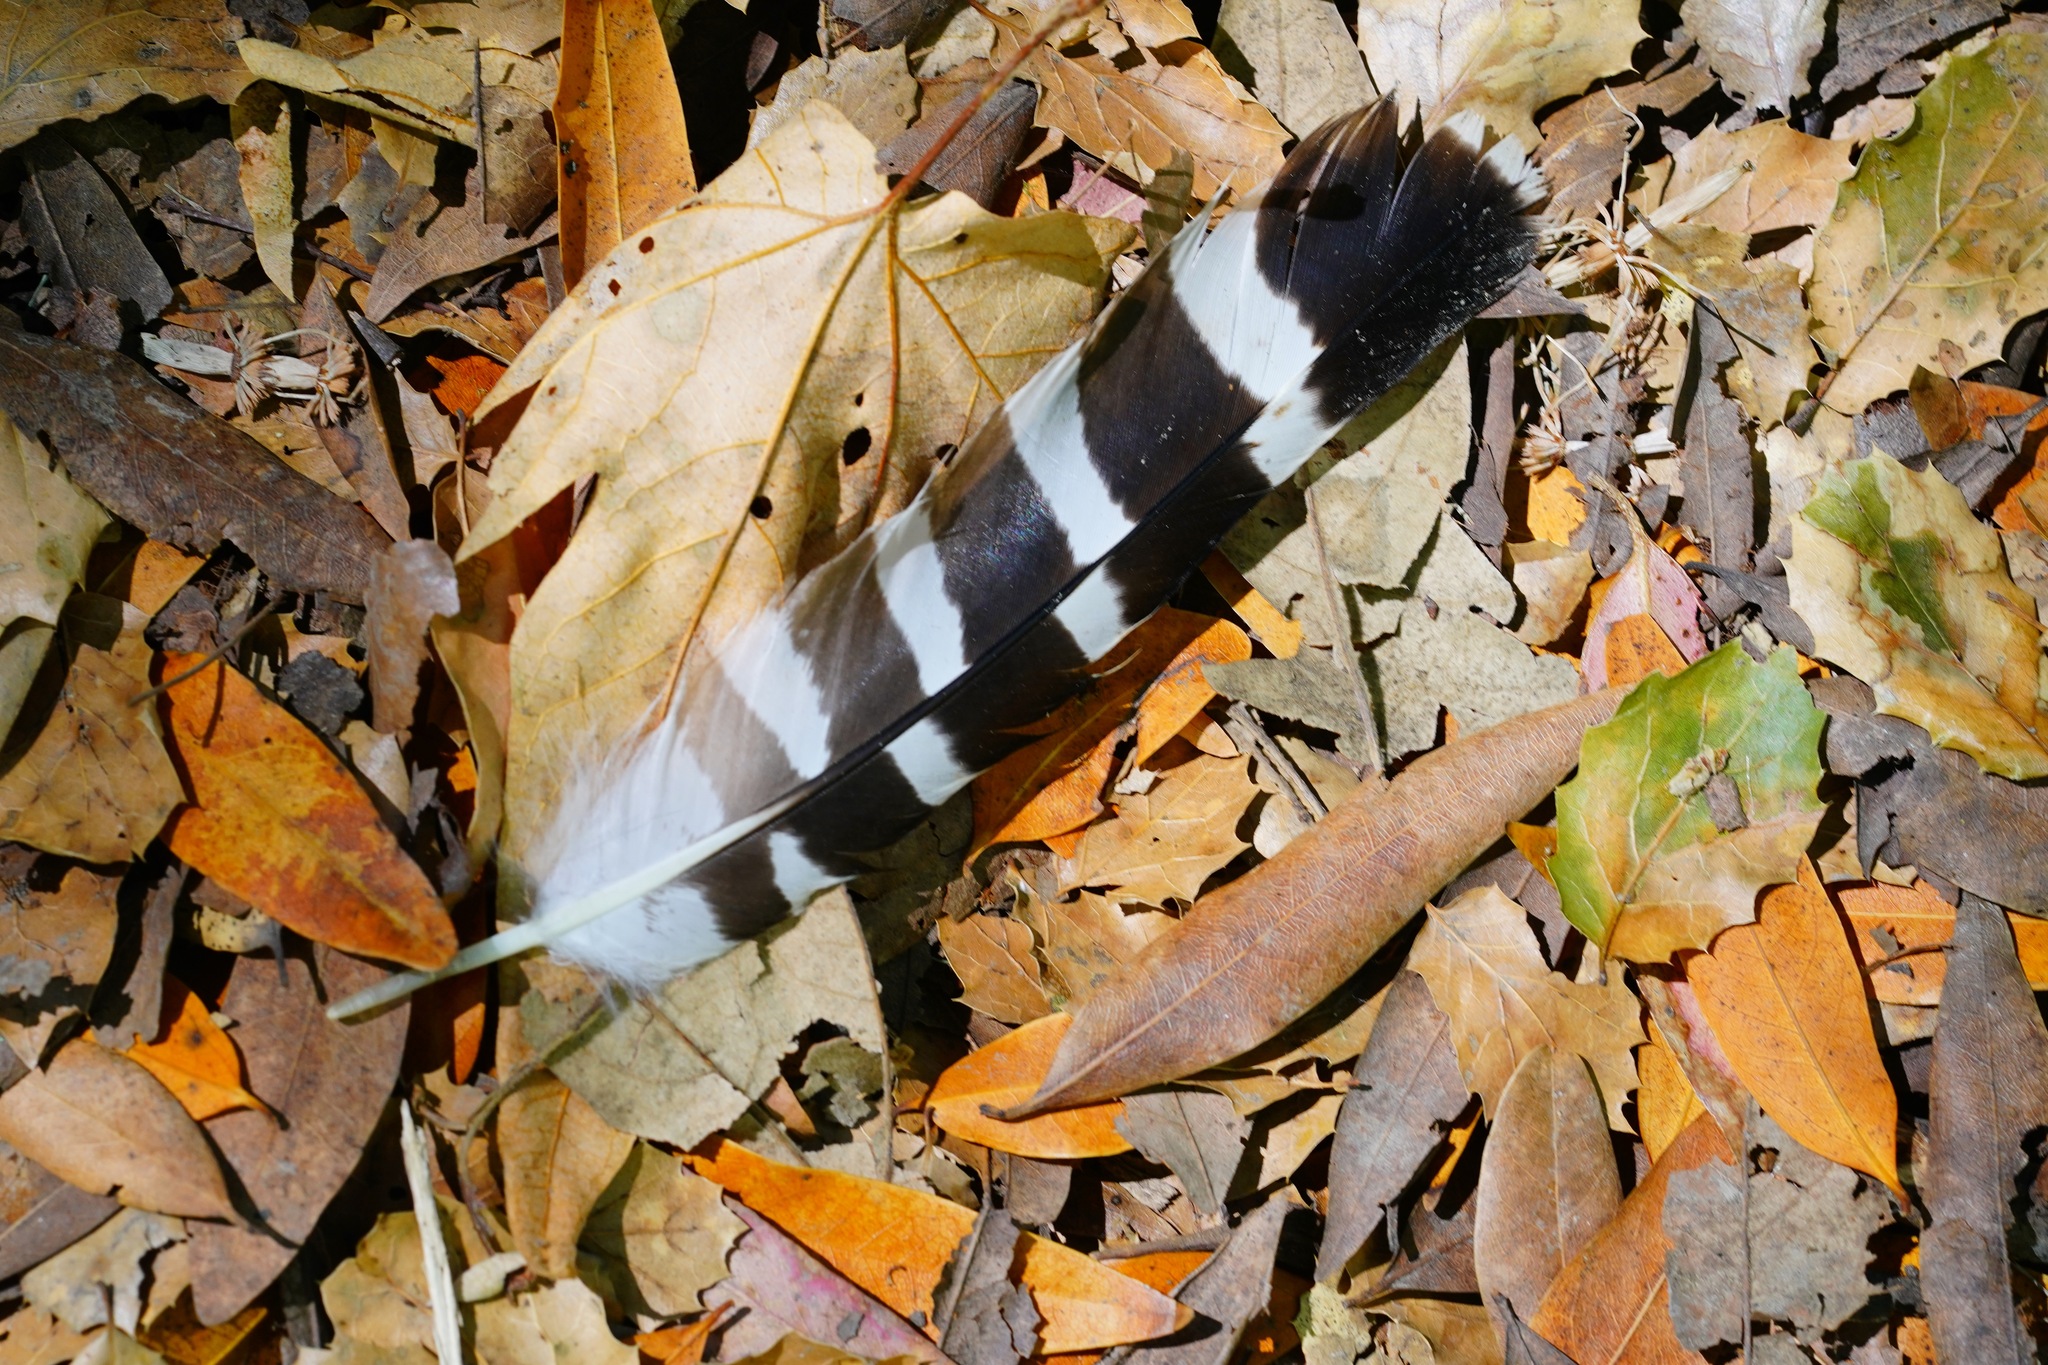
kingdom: Animalia
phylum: Chordata
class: Aves
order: Accipitriformes
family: Accipitridae
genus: Buteo
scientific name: Buteo lineatus
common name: Red-shouldered hawk
